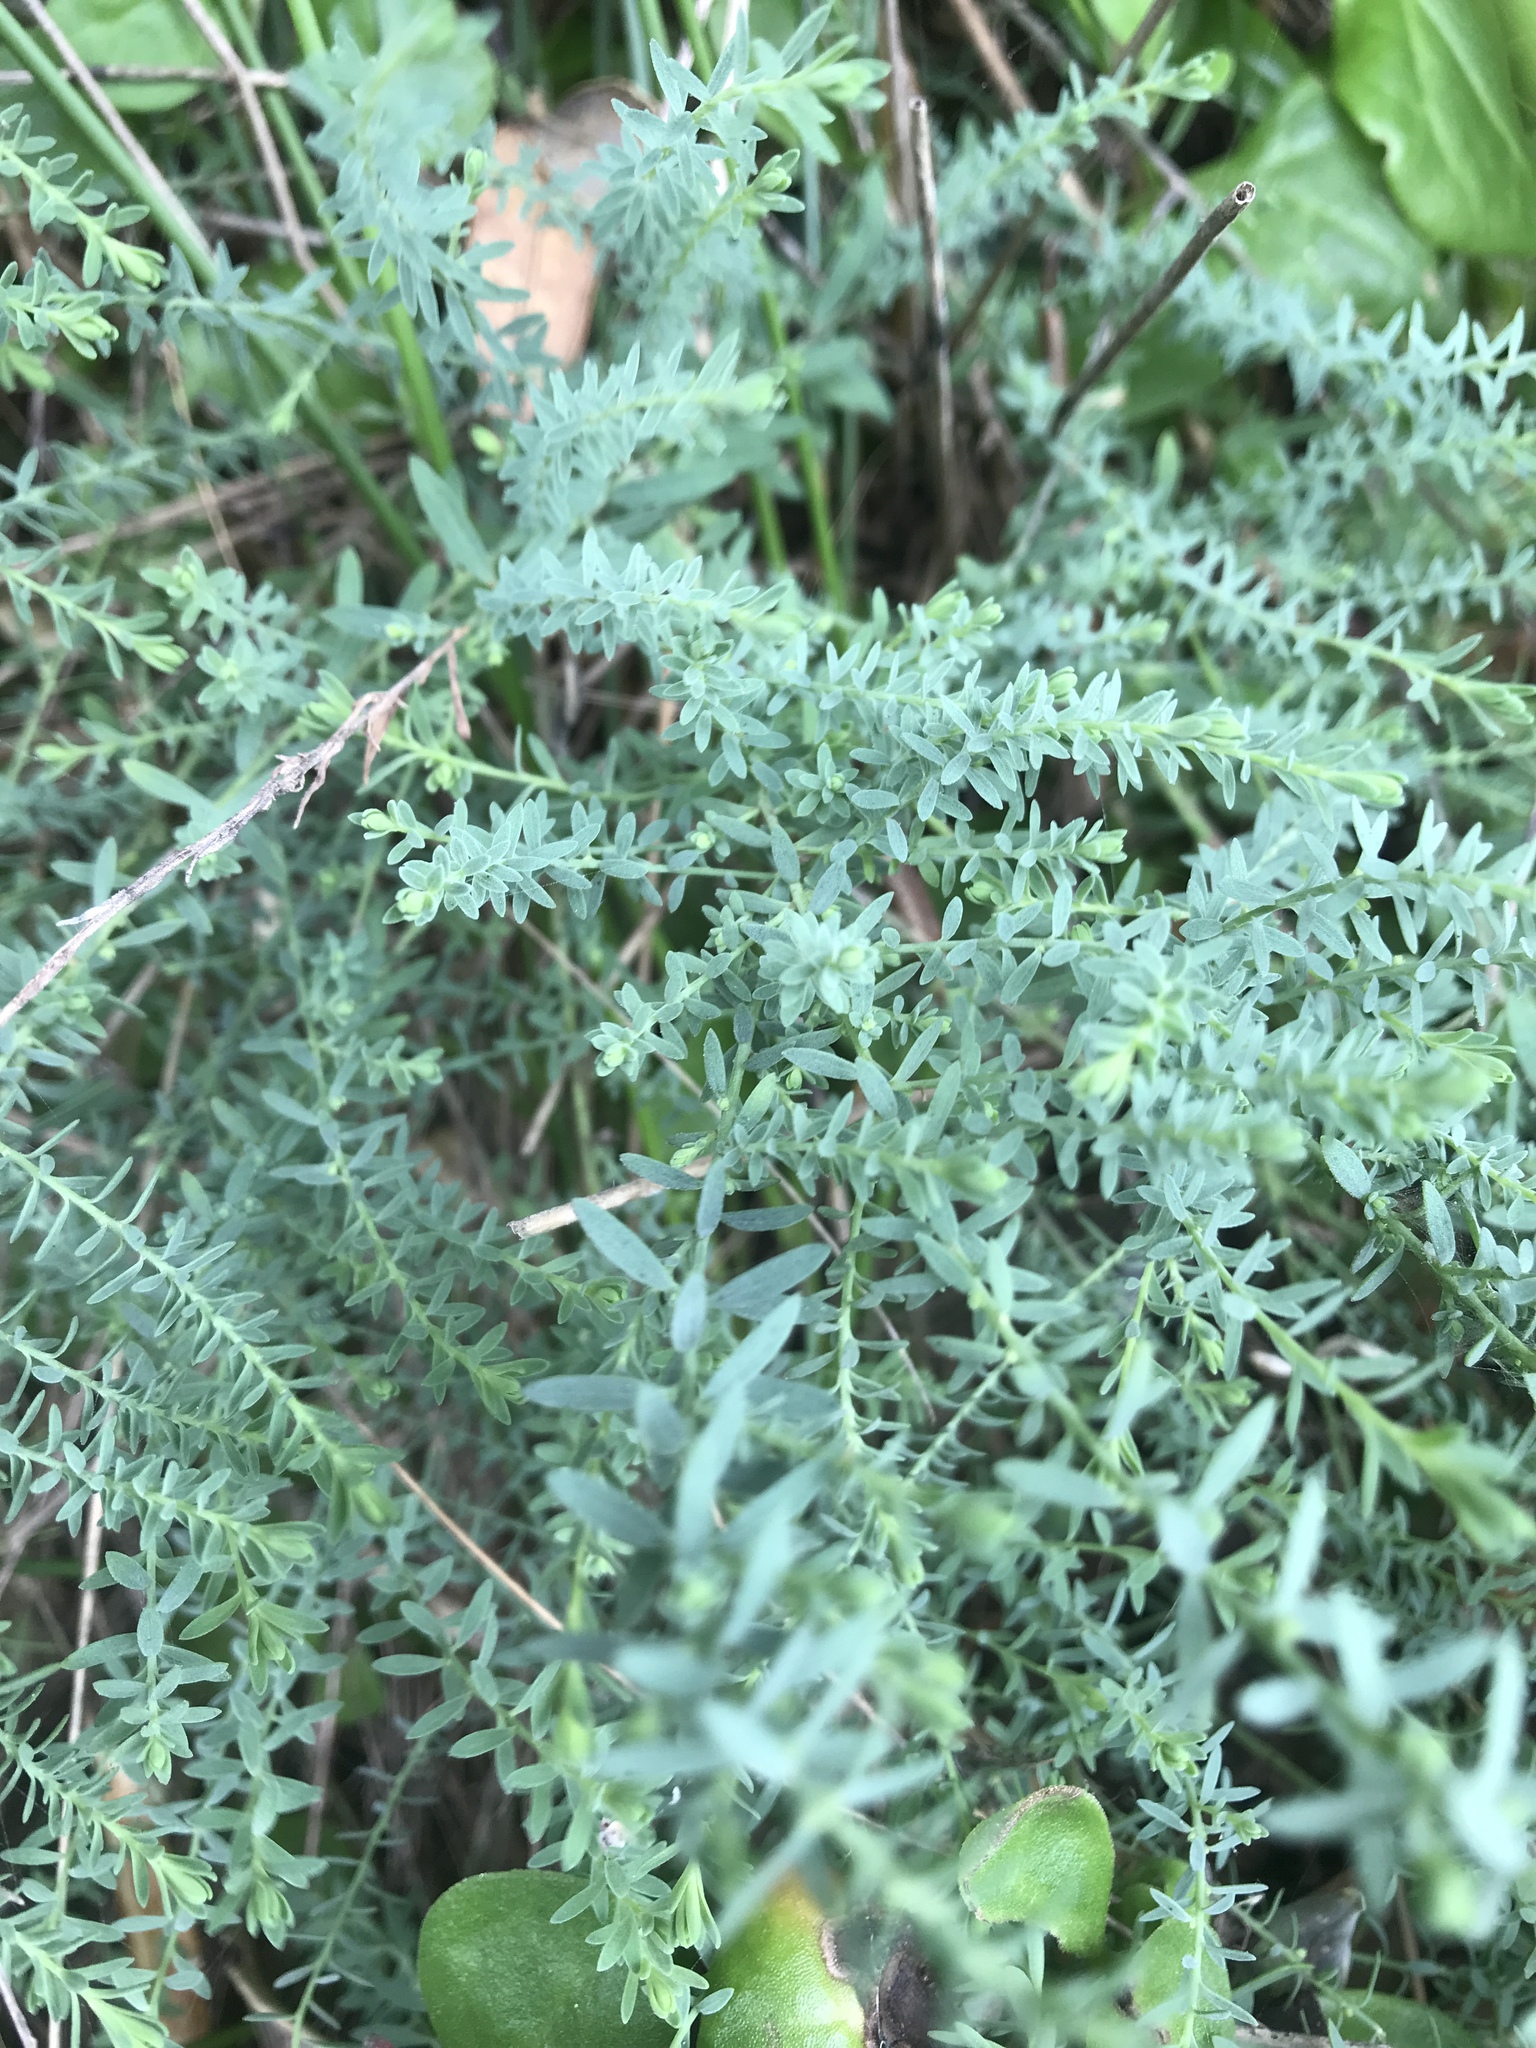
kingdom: Plantae
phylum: Tracheophyta
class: Magnoliopsida
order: Malpighiales
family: Linaceae
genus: Linum
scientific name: Linum monogynum
